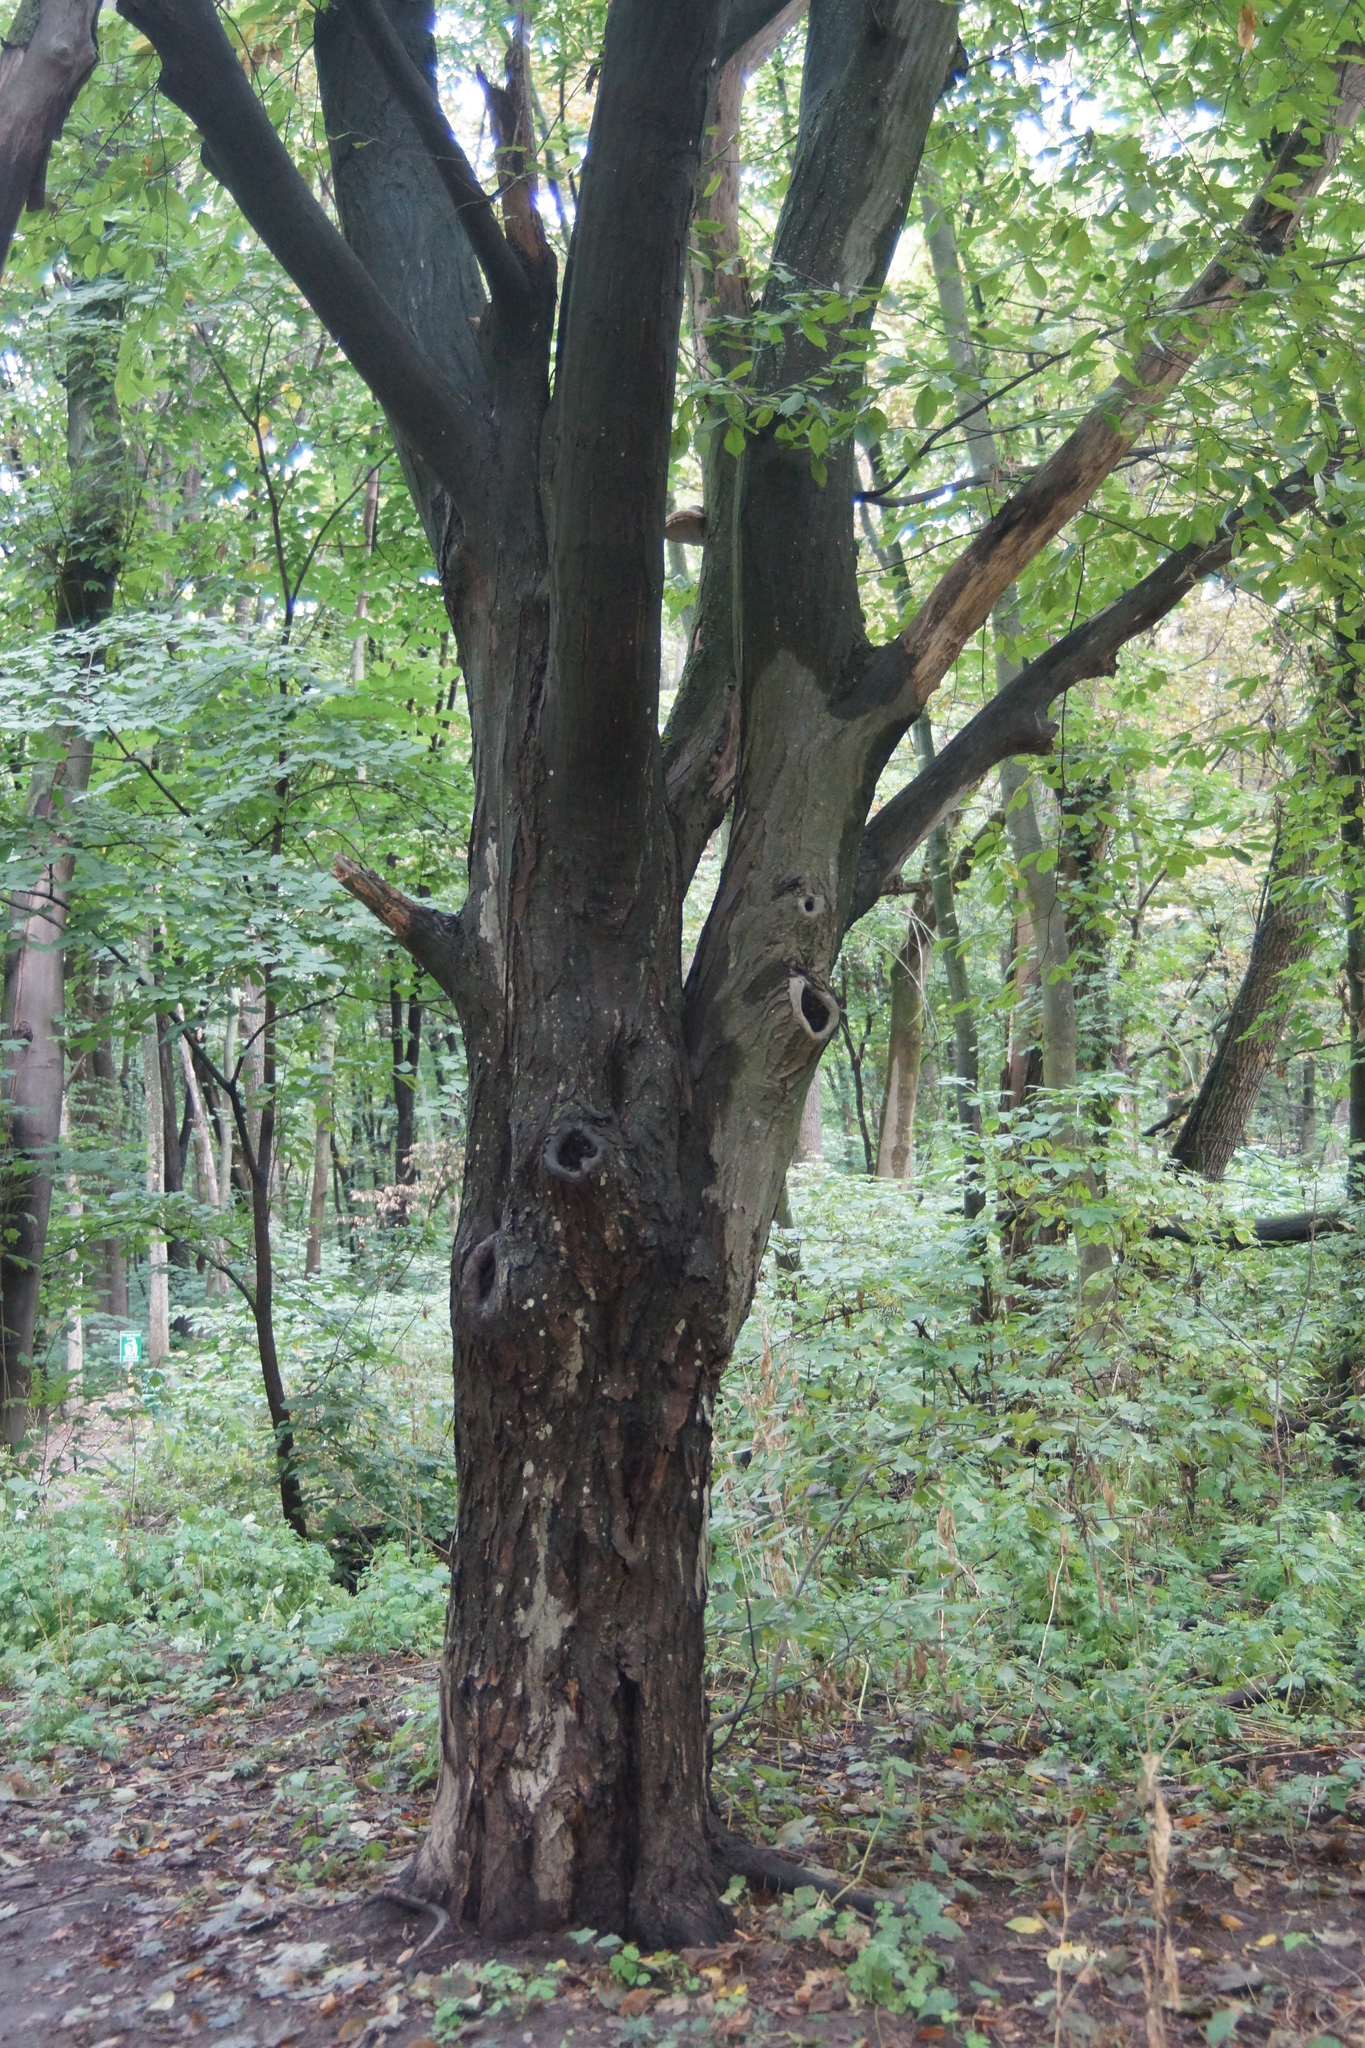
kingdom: Plantae
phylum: Tracheophyta
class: Magnoliopsida
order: Fagales
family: Betulaceae
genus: Carpinus
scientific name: Carpinus betulus
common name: Hornbeam
